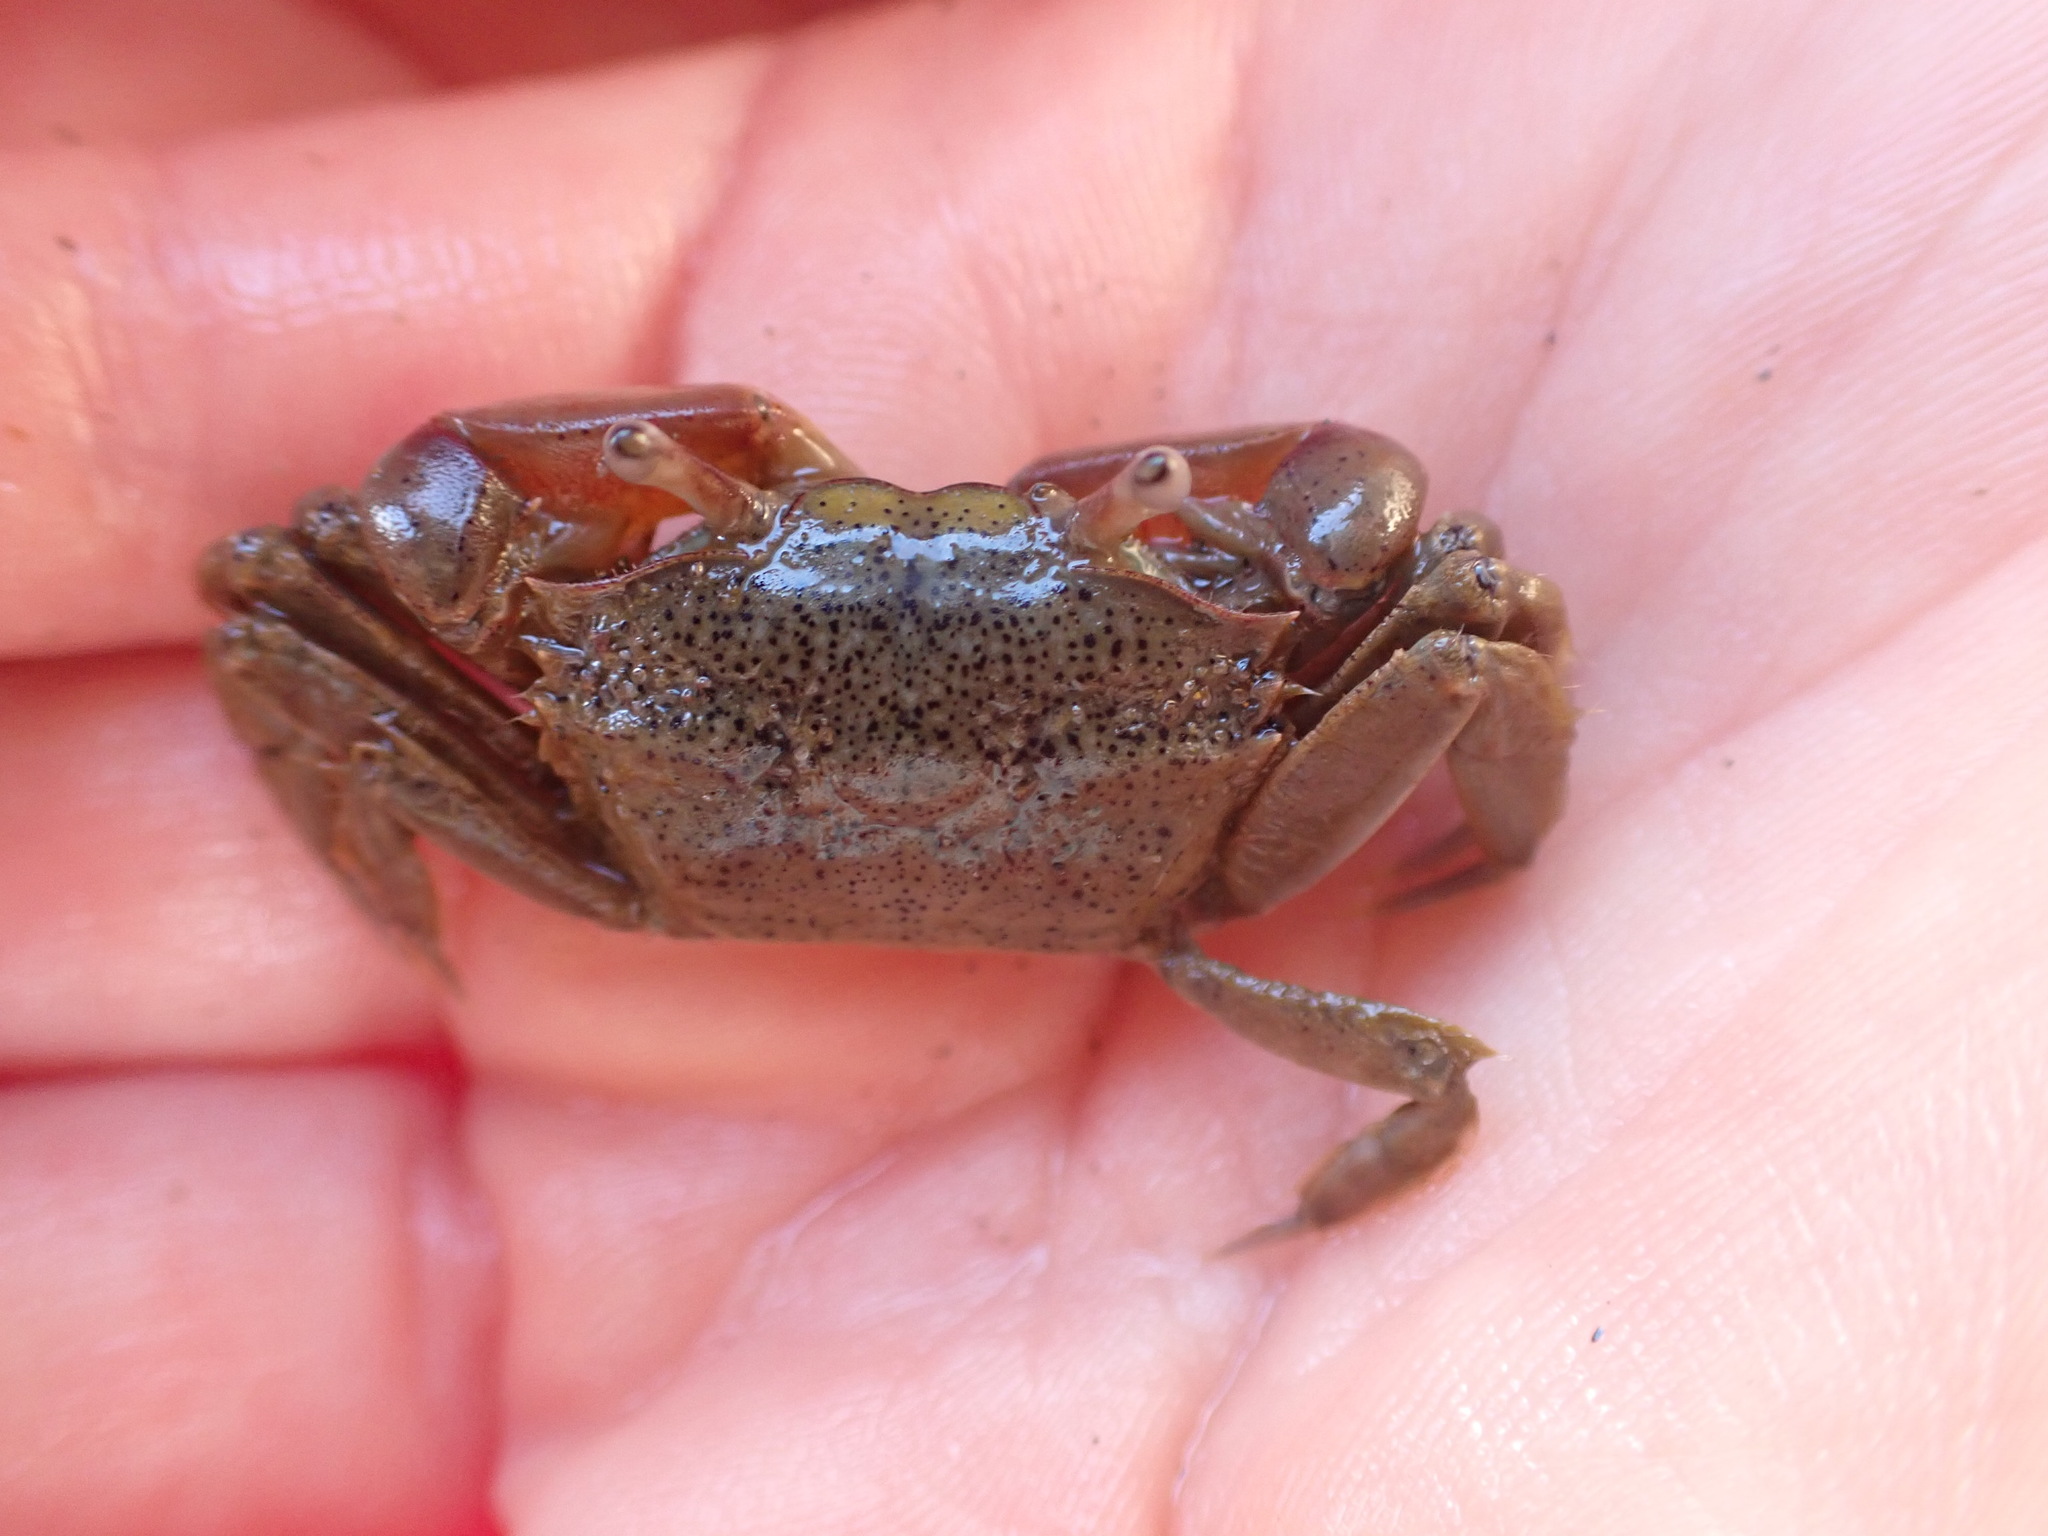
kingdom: Animalia
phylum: Arthropoda
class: Malacostraca
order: Decapoda
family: Macrophthalmidae
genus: Hemiplax
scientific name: Hemiplax hirtipes
